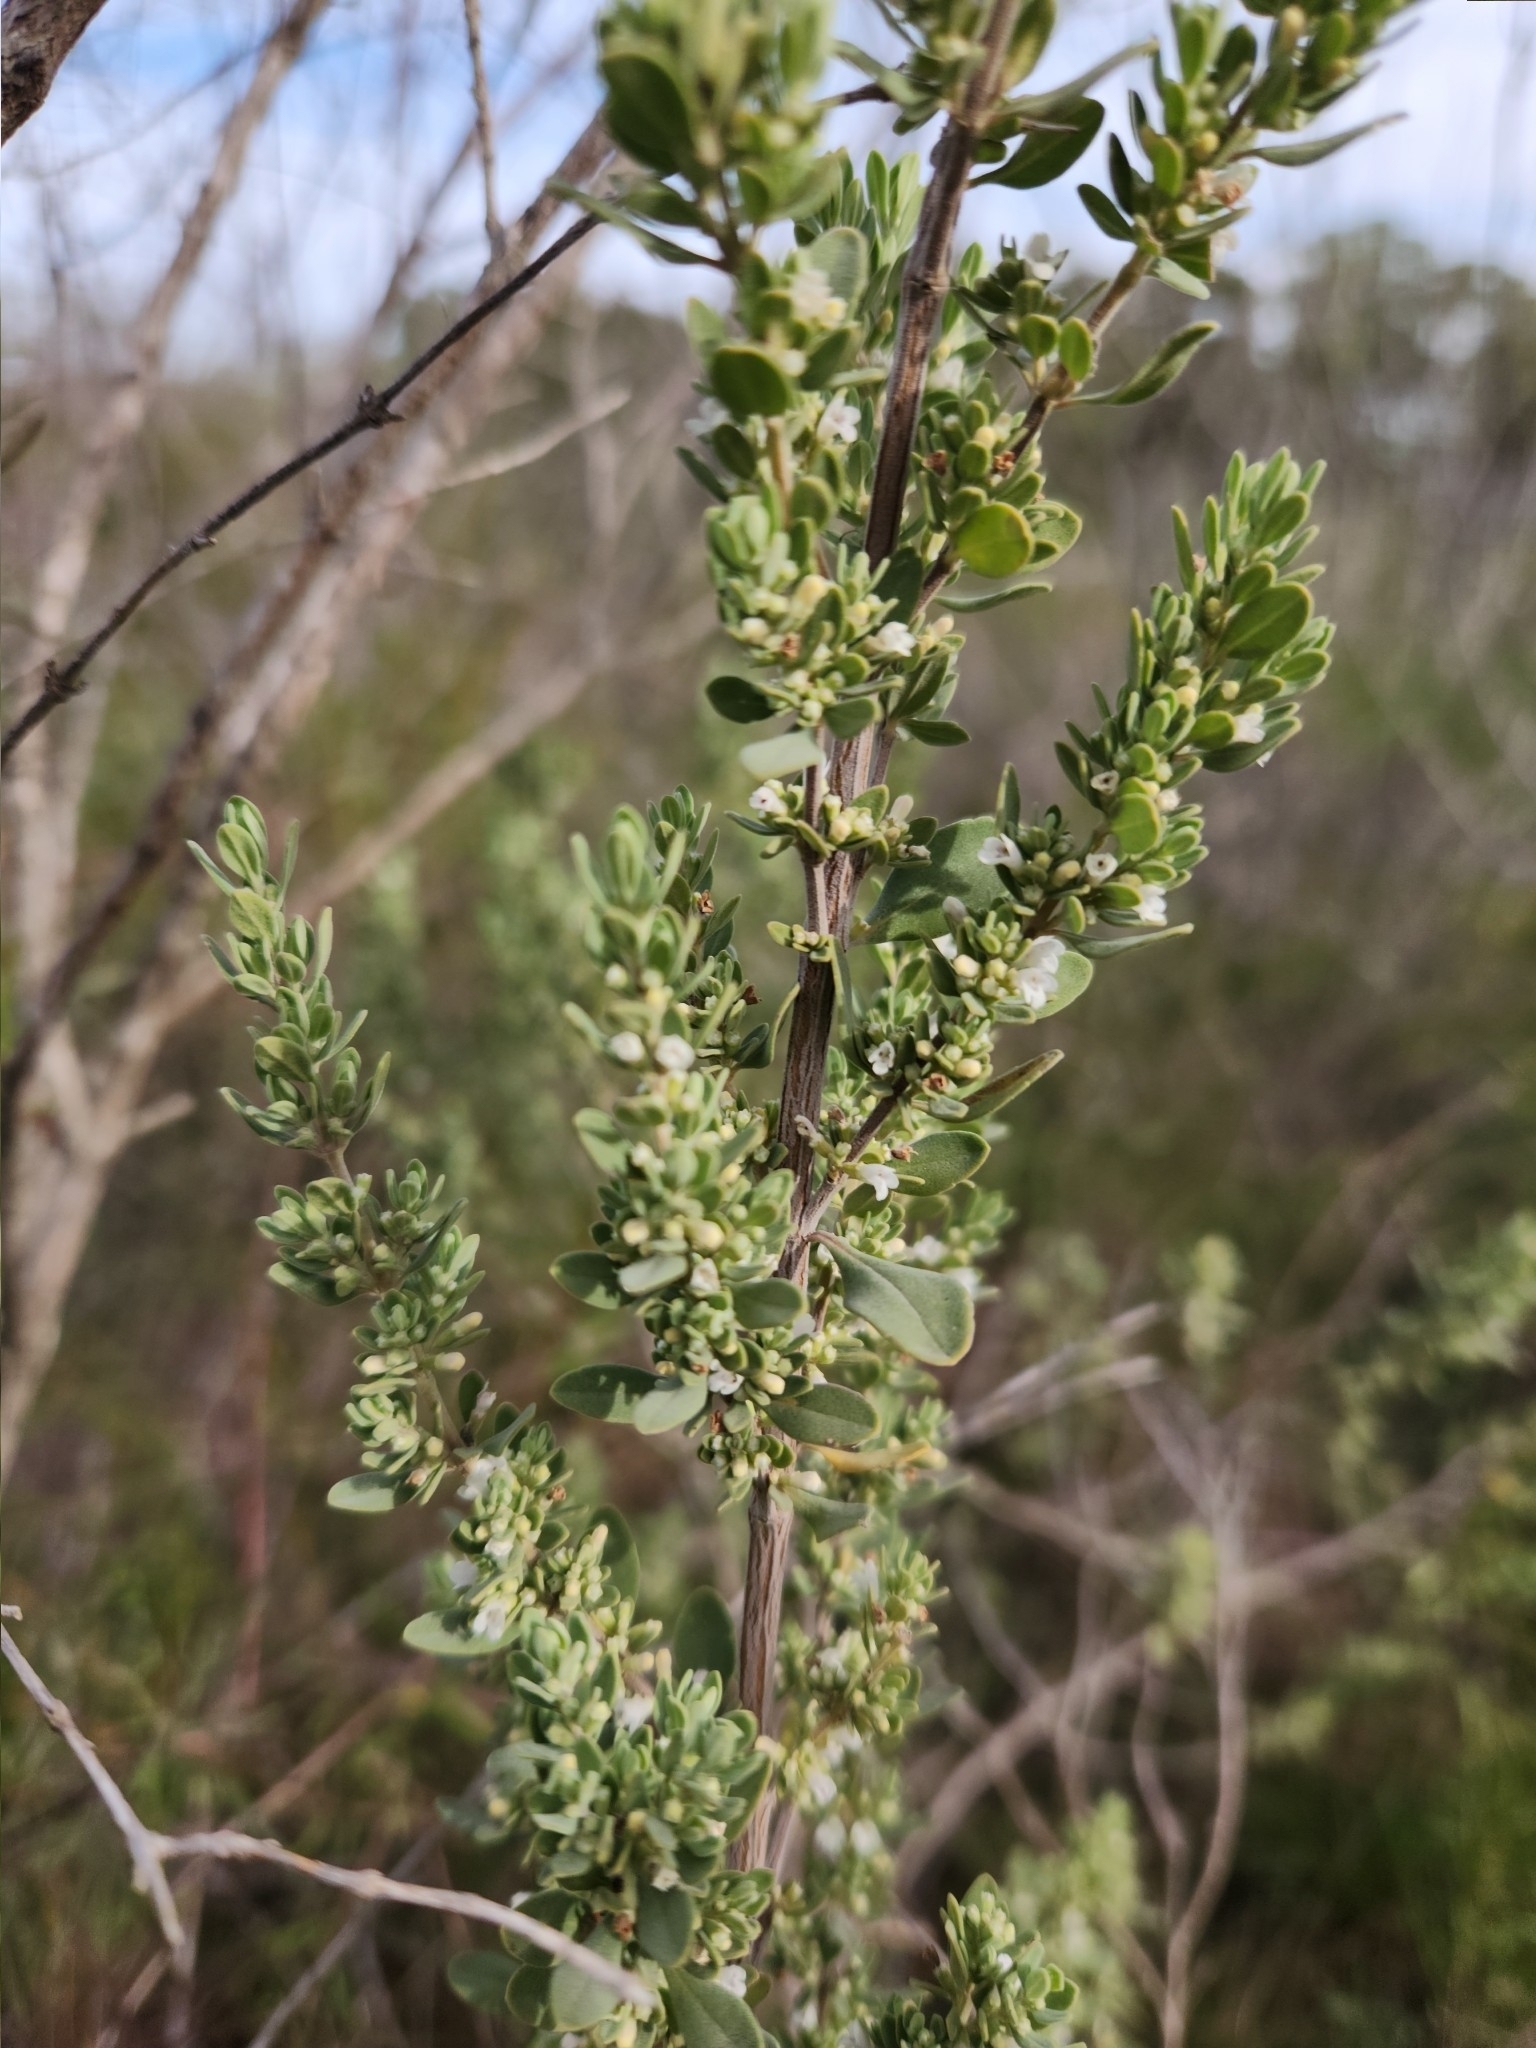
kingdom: Plantae
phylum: Tracheophyta
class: Magnoliopsida
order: Lamiales
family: Lamiaceae
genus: Cunila
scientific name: Cunila incana
